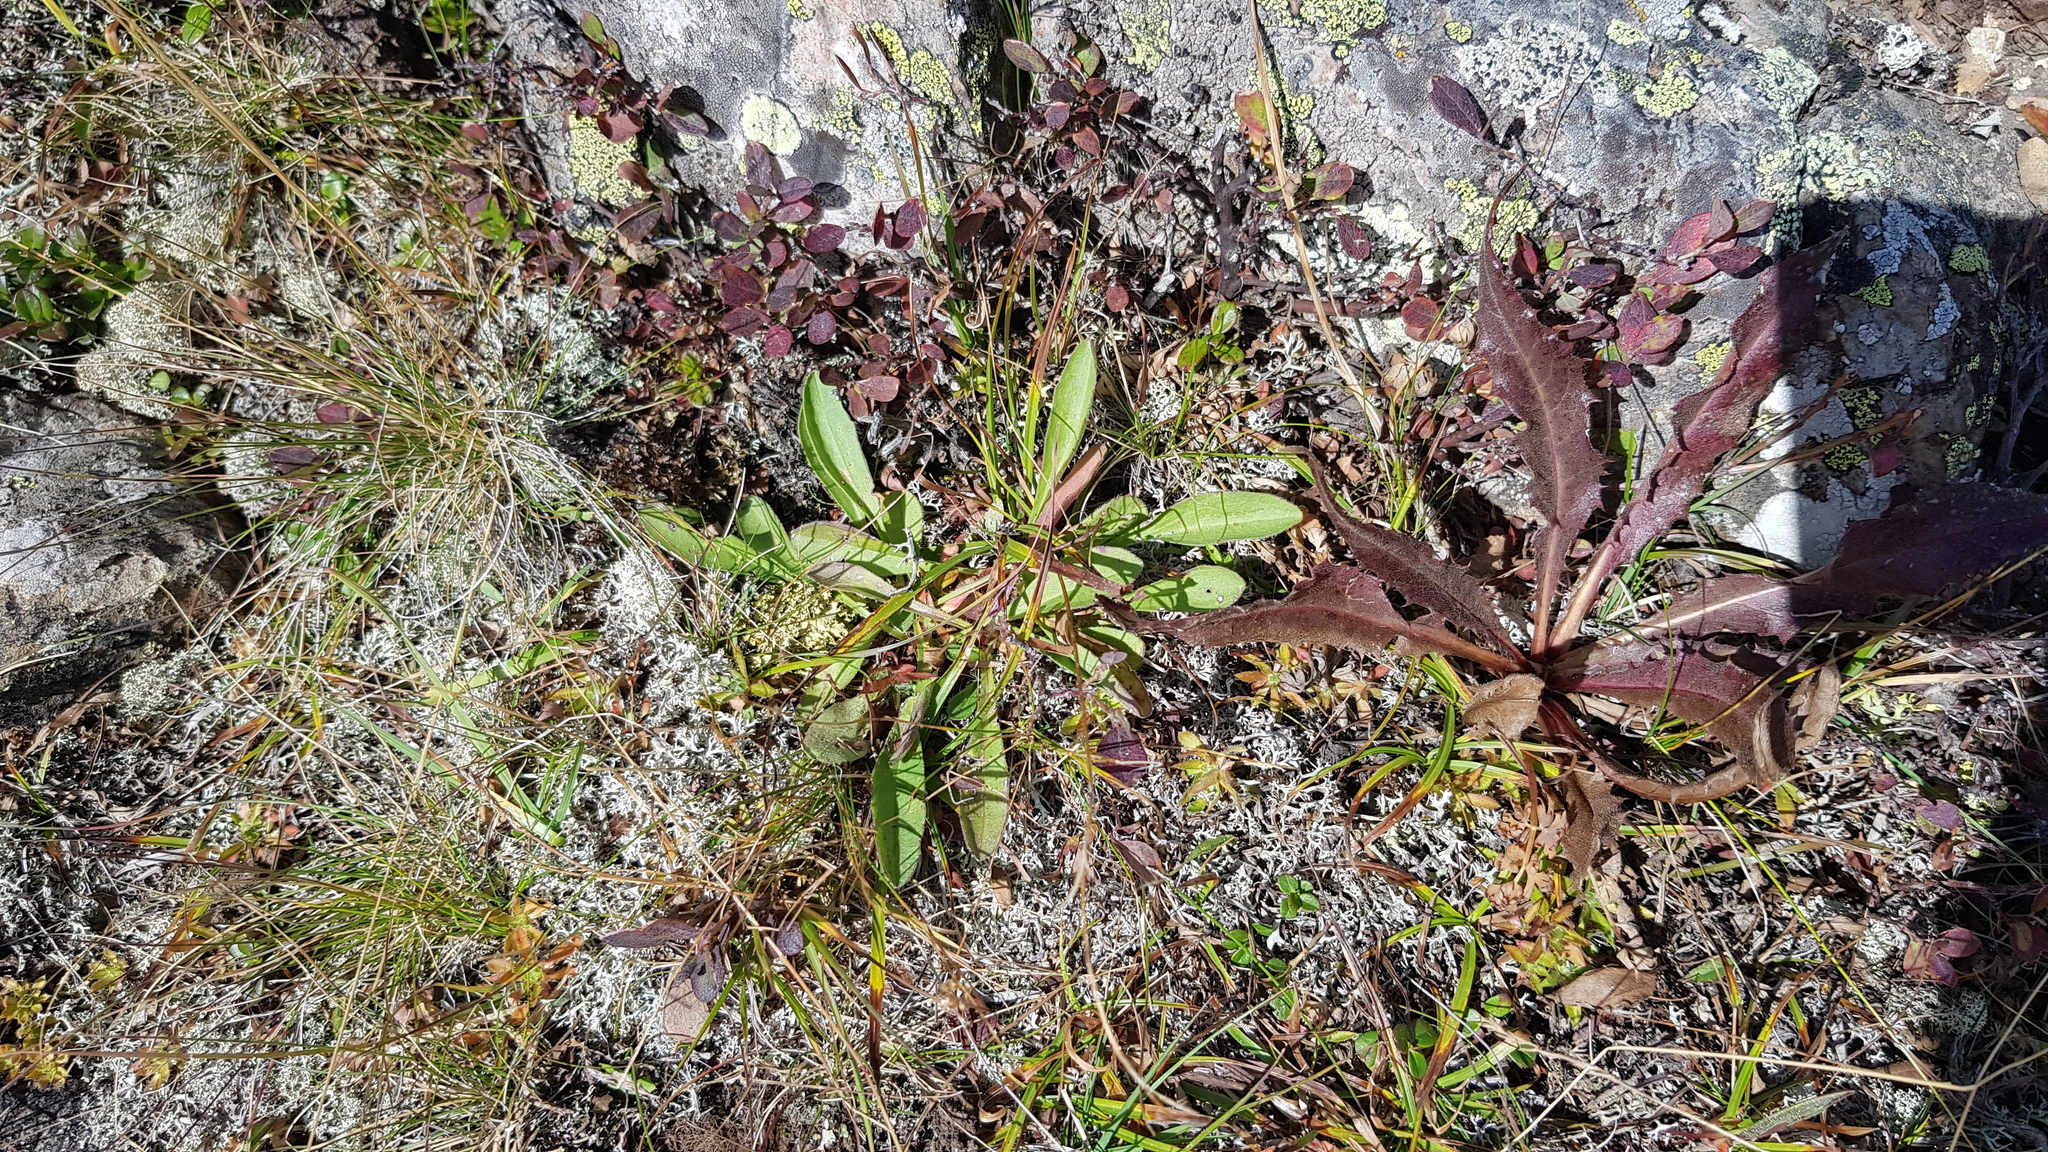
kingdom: Plantae
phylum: Tracheophyta
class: Magnoliopsida
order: Asterales
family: Asteraceae
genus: Taraxacum
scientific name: Taraxacum ceratophorum
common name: Horn-bearing dandelion
